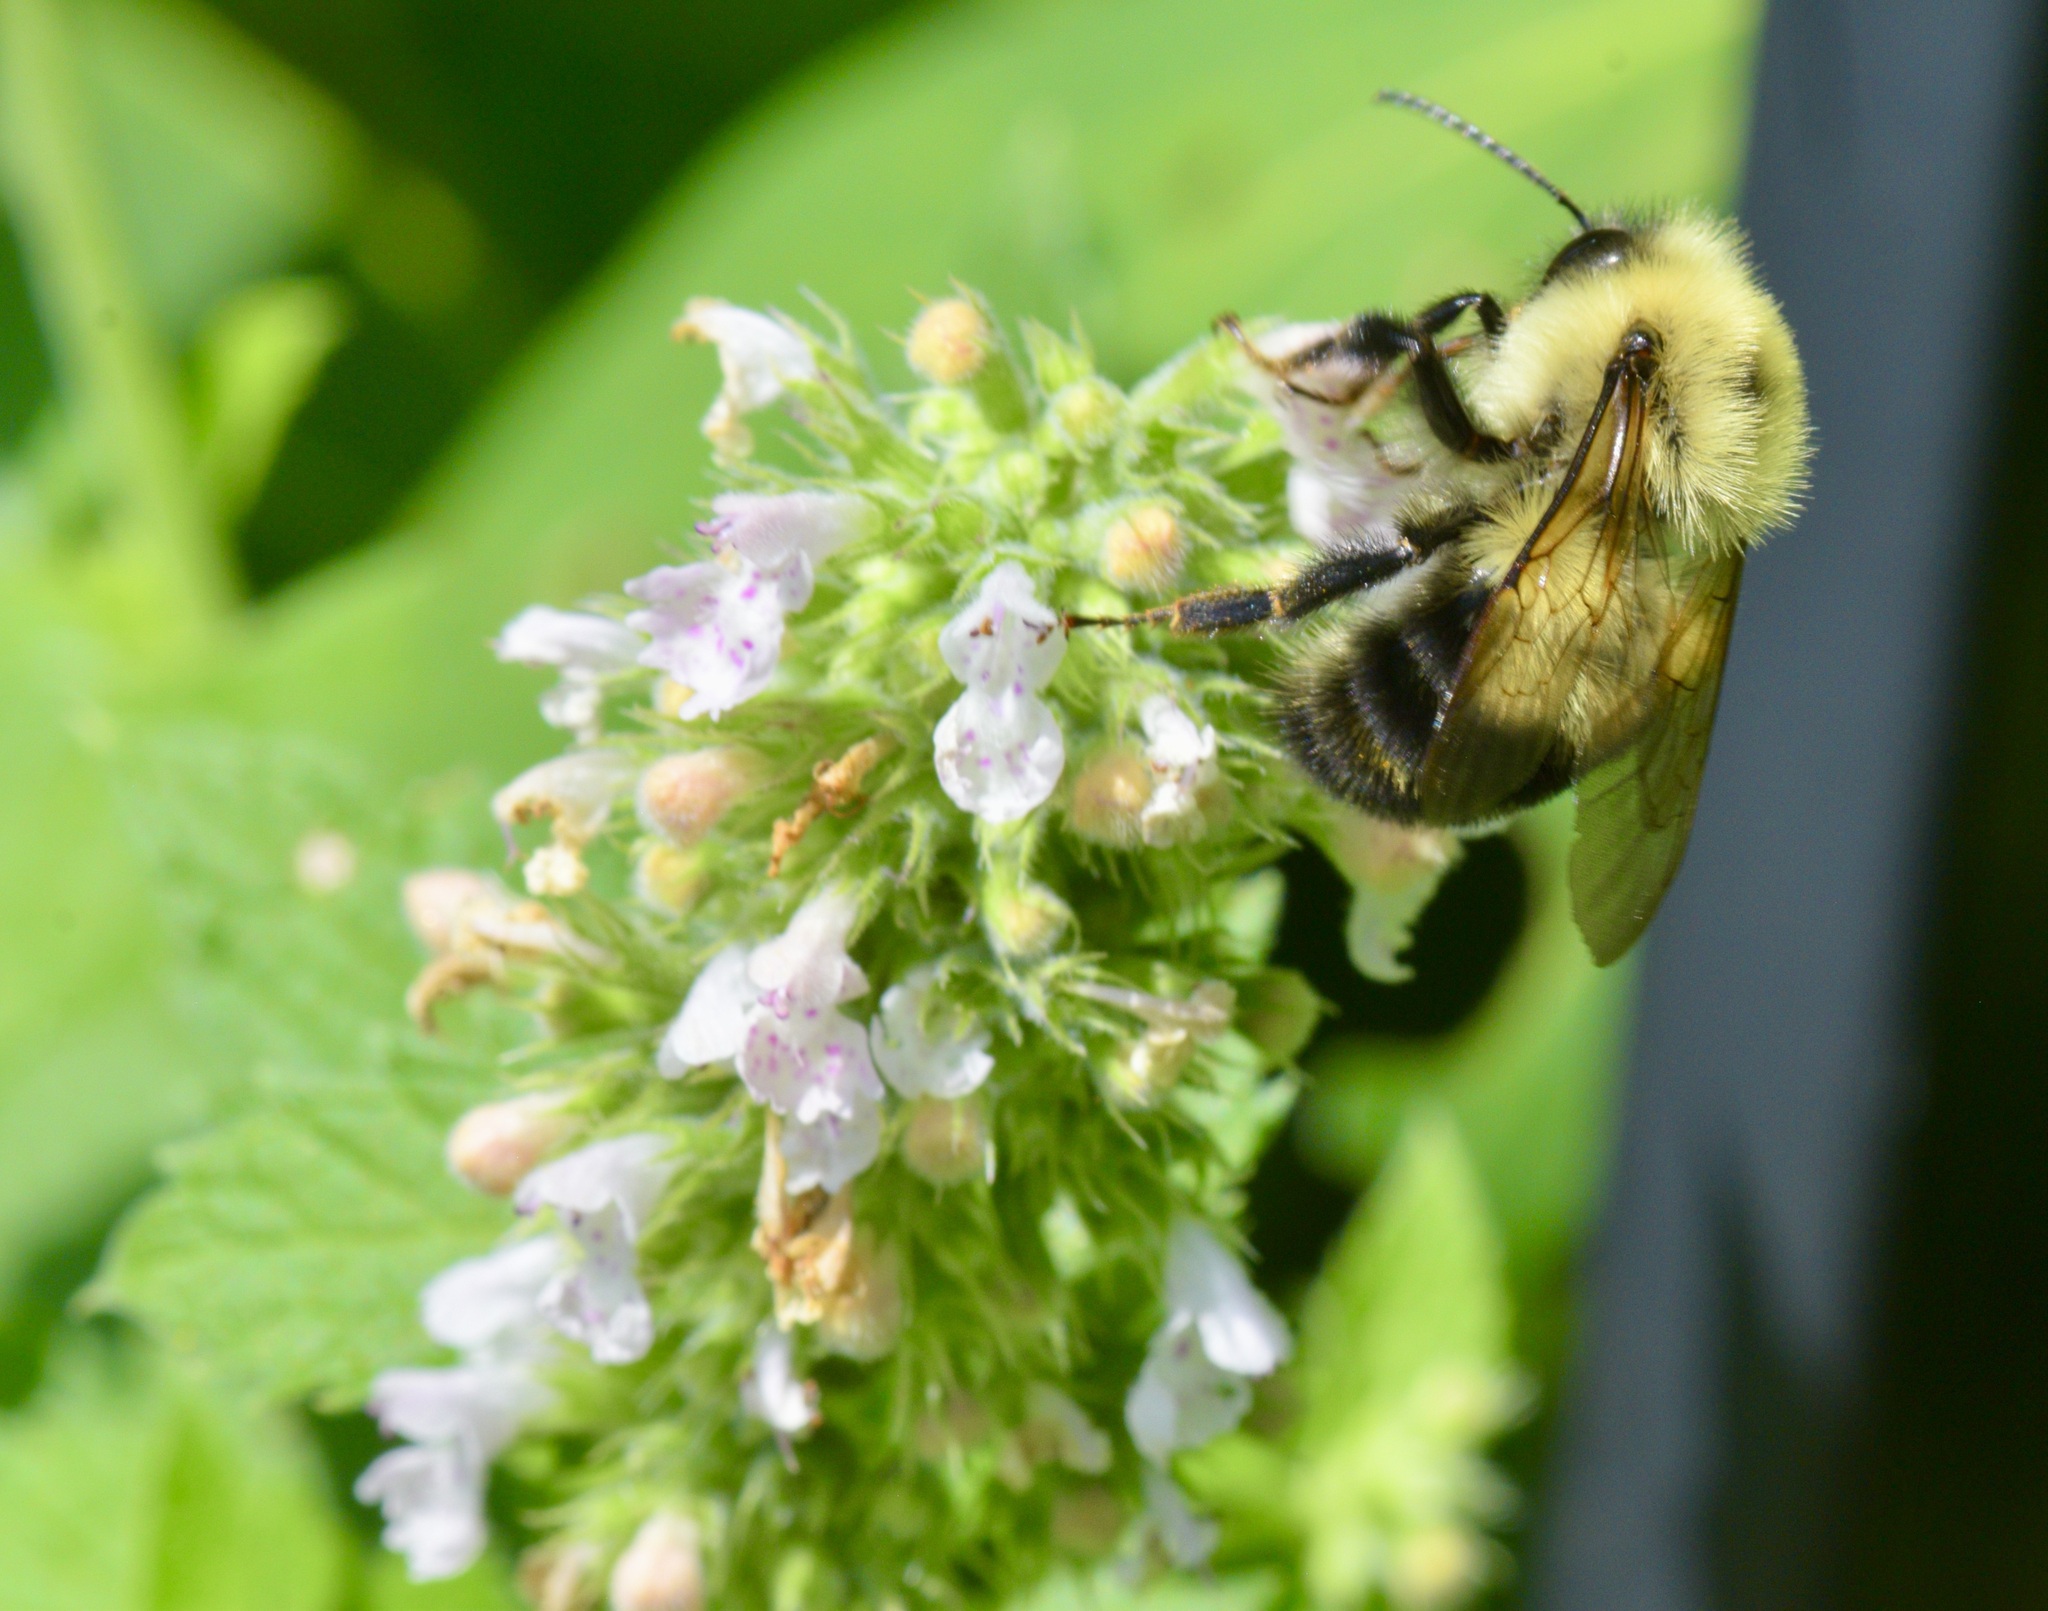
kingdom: Animalia
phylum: Arthropoda
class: Insecta
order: Hymenoptera
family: Apidae
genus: Bombus
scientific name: Bombus bimaculatus
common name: Two-spotted bumble bee
